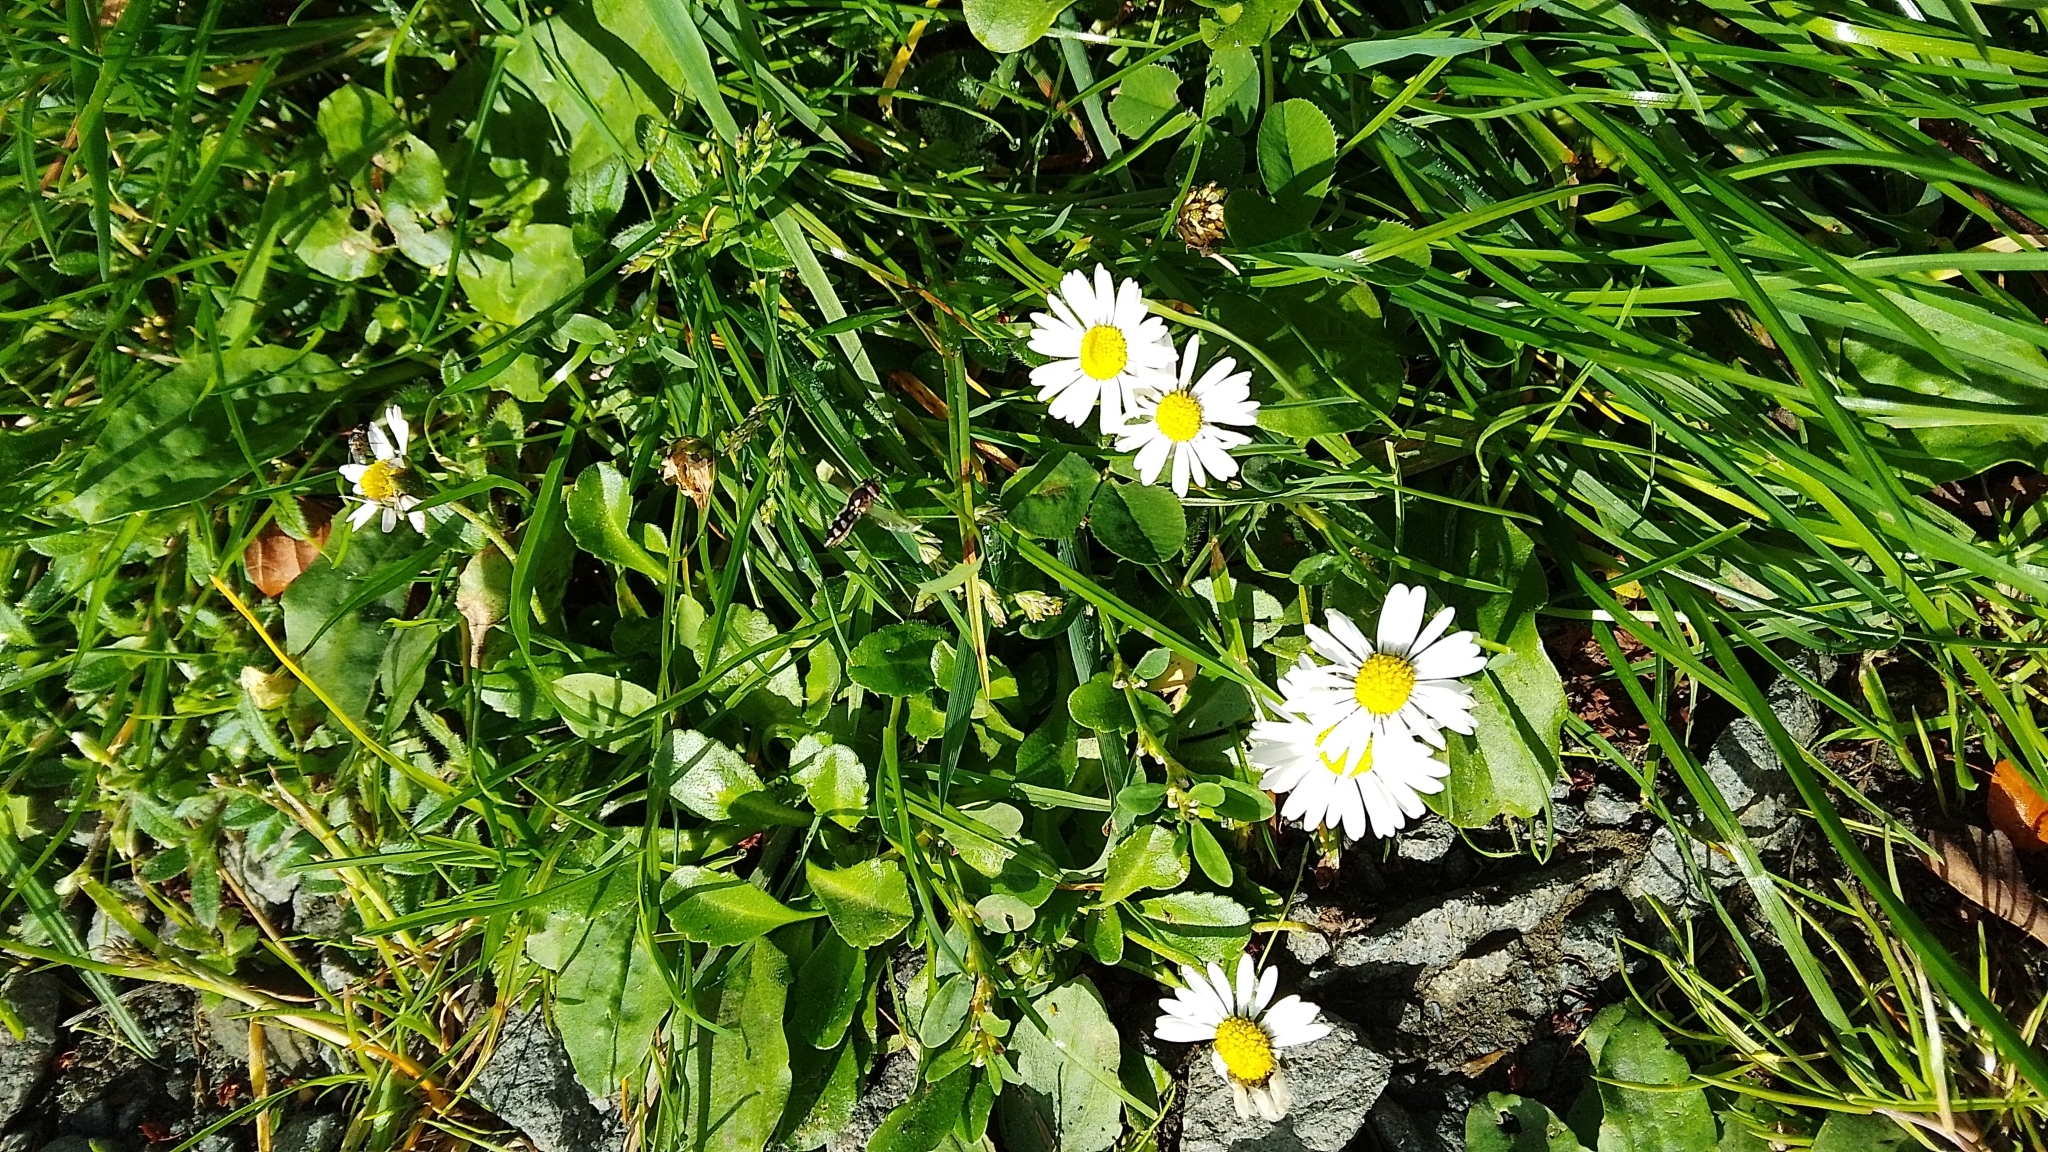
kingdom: Plantae
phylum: Tracheophyta
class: Magnoliopsida
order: Asterales
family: Asteraceae
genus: Bellis
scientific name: Bellis perennis
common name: Lawndaisy
